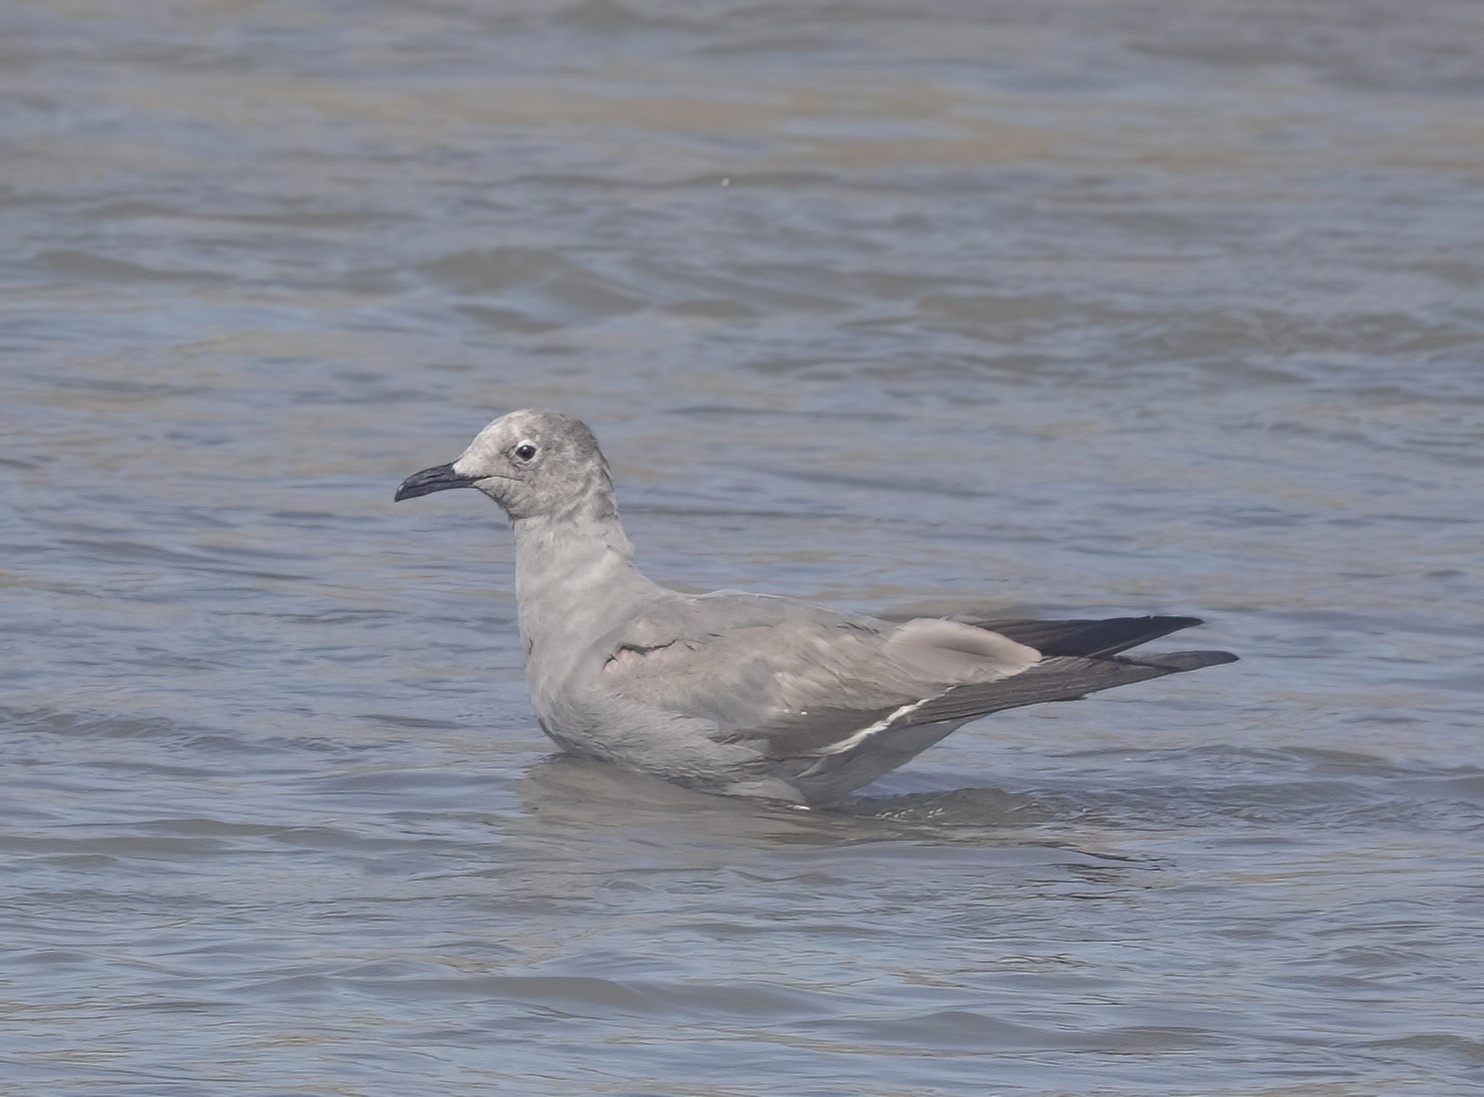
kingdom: Animalia
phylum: Chordata
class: Aves
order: Charadriiformes
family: Laridae
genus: Leucophaeus
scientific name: Leucophaeus modestus
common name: Gray gull
